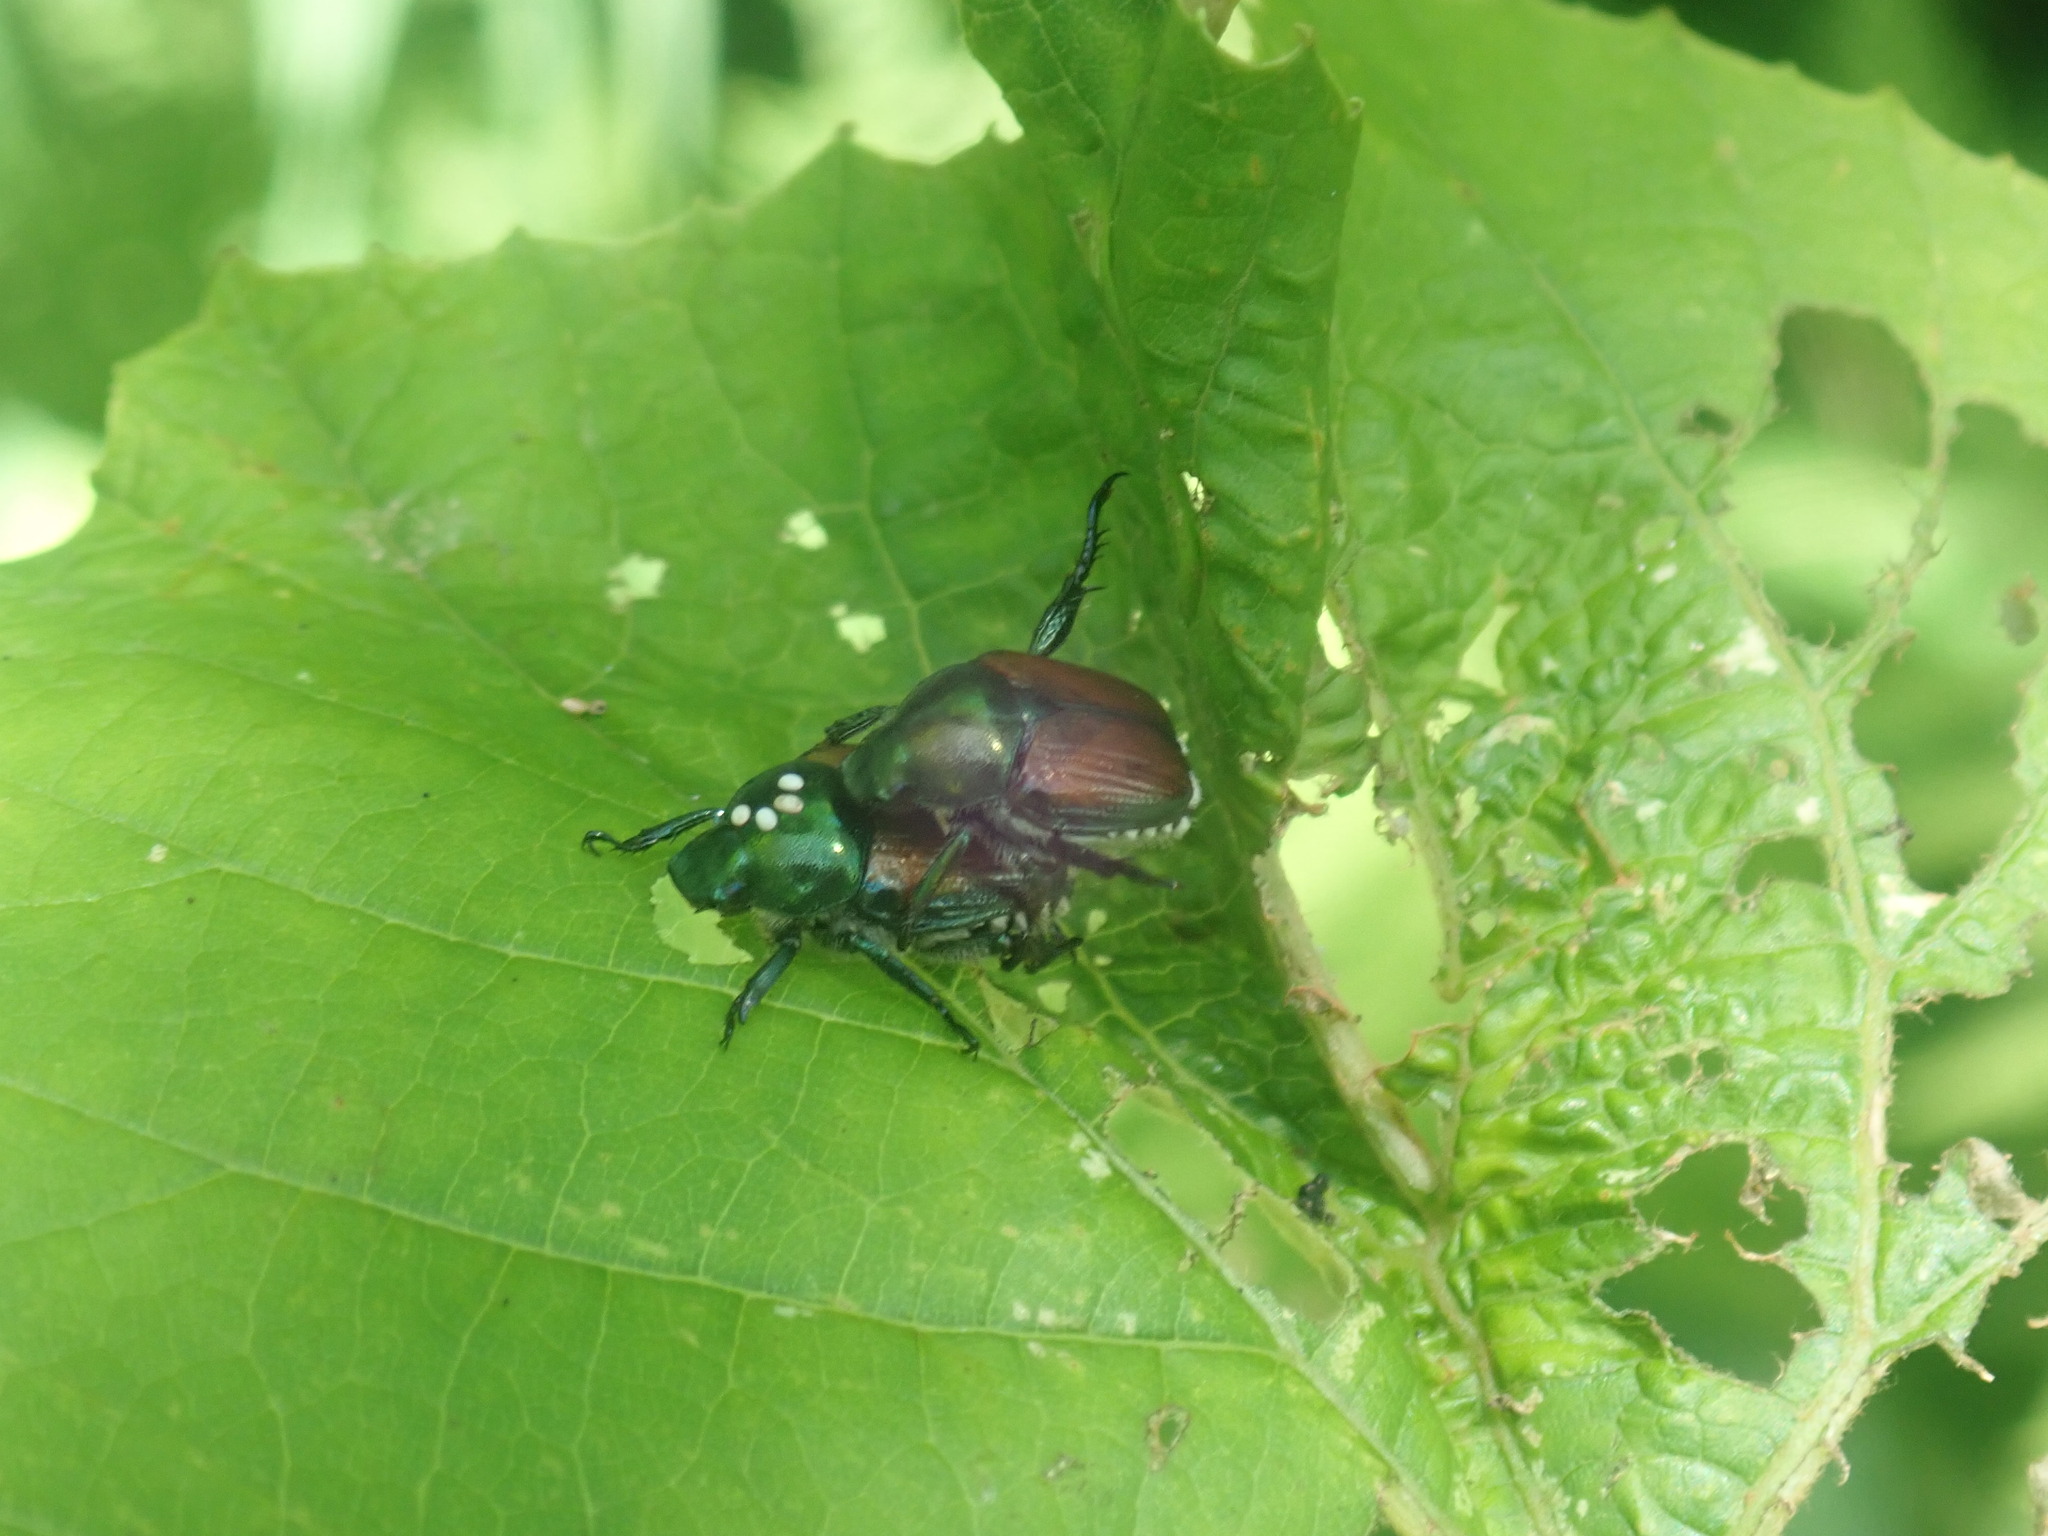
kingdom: Animalia
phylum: Arthropoda
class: Insecta
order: Diptera
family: Tachinidae
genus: Istocheta
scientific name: Istocheta aldrichi
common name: Parasitic wasp
